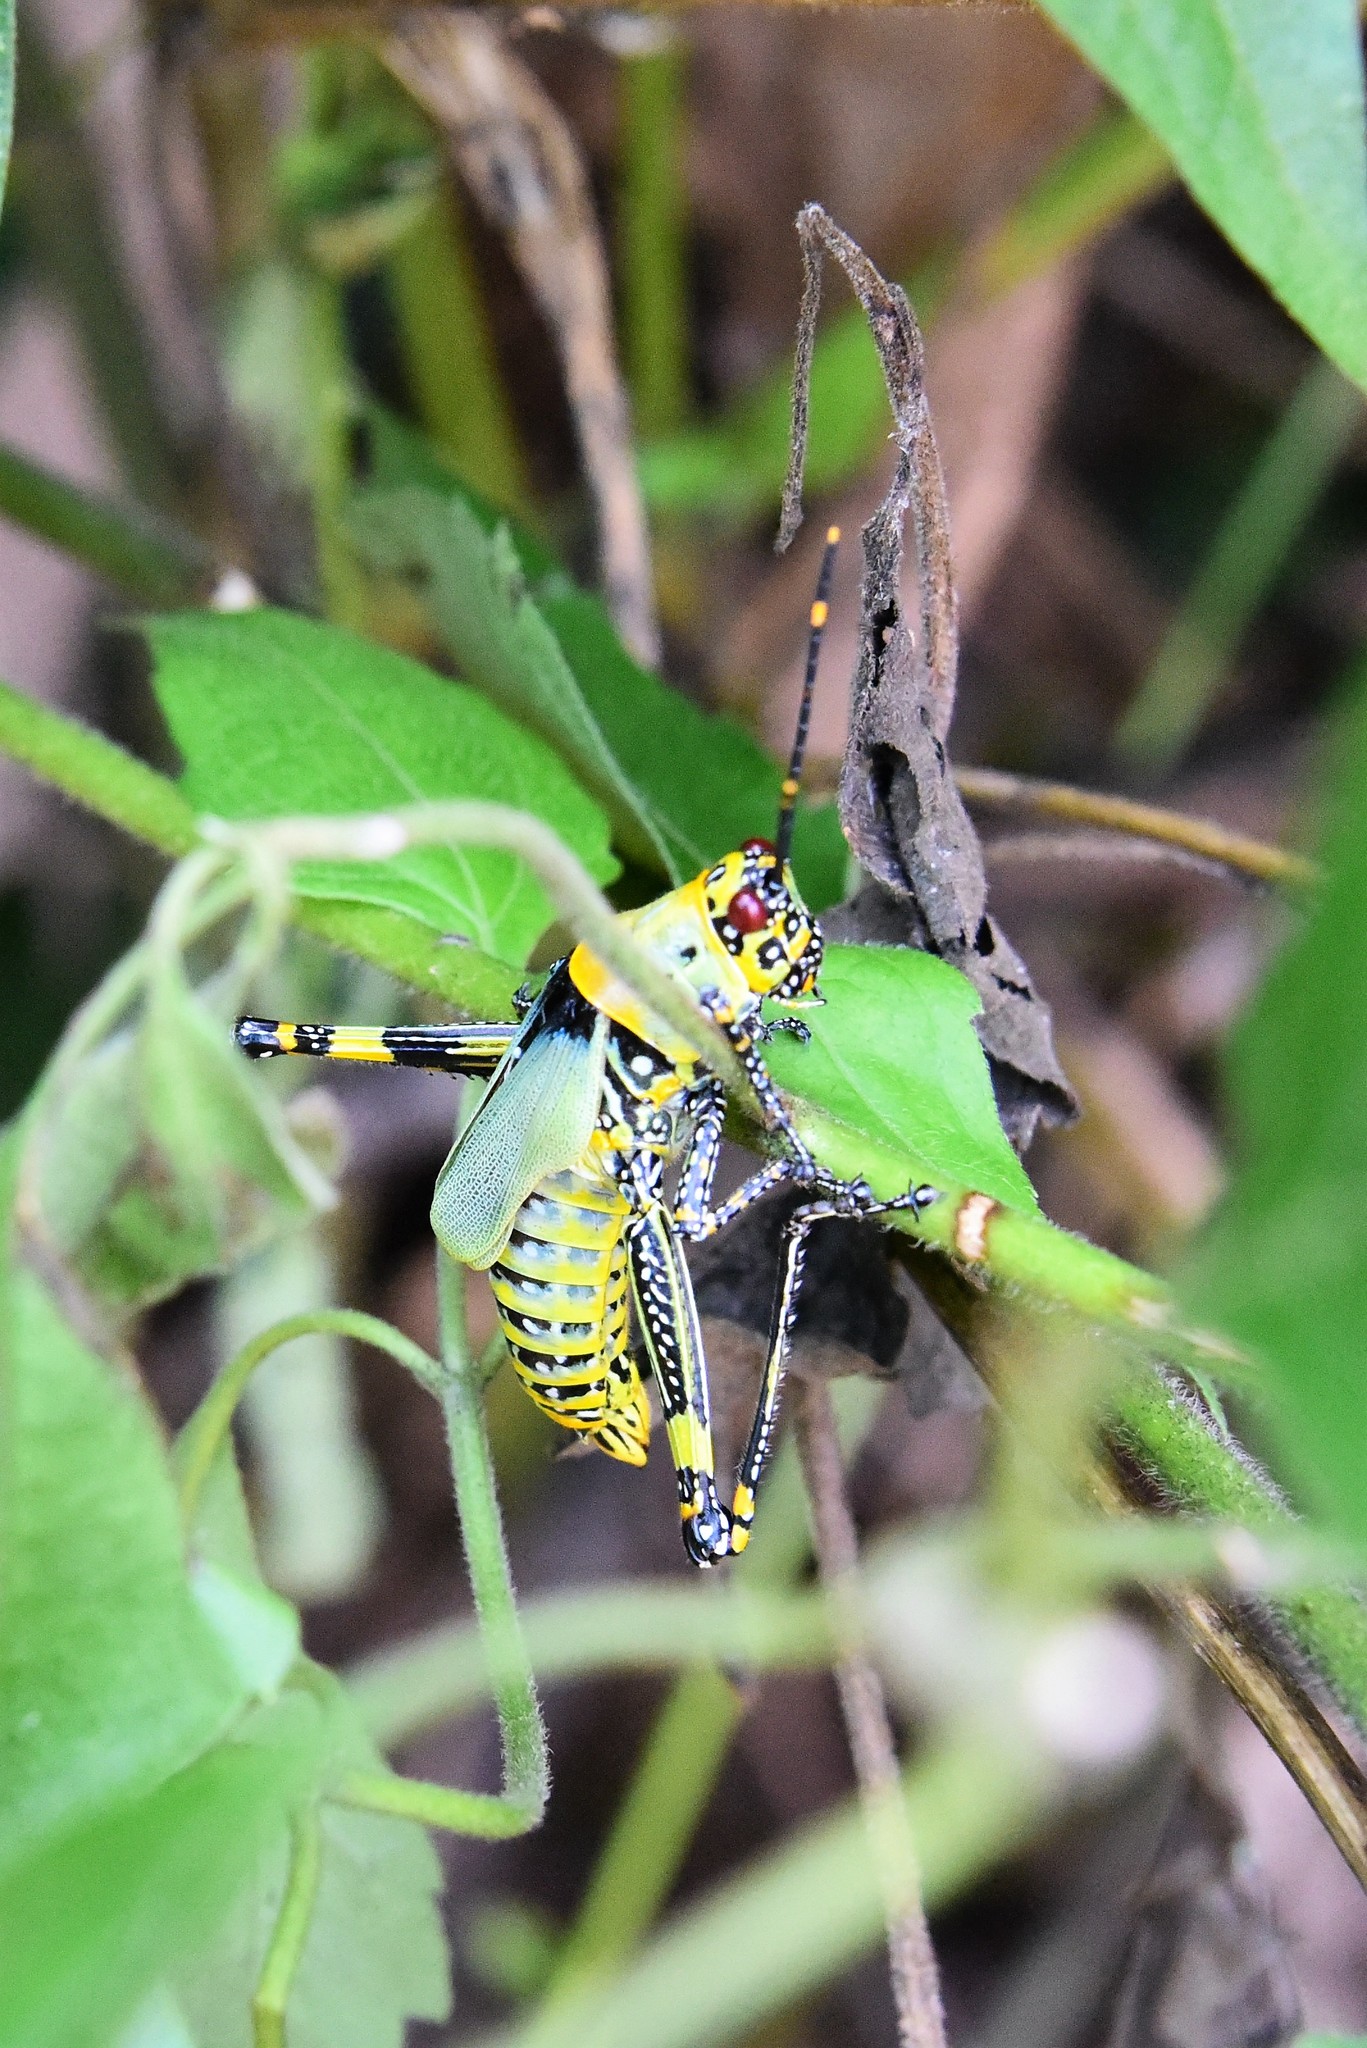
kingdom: Animalia
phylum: Arthropoda
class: Insecta
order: Orthoptera
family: Pyrgomorphidae
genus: Zonocerus
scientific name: Zonocerus variegatus
